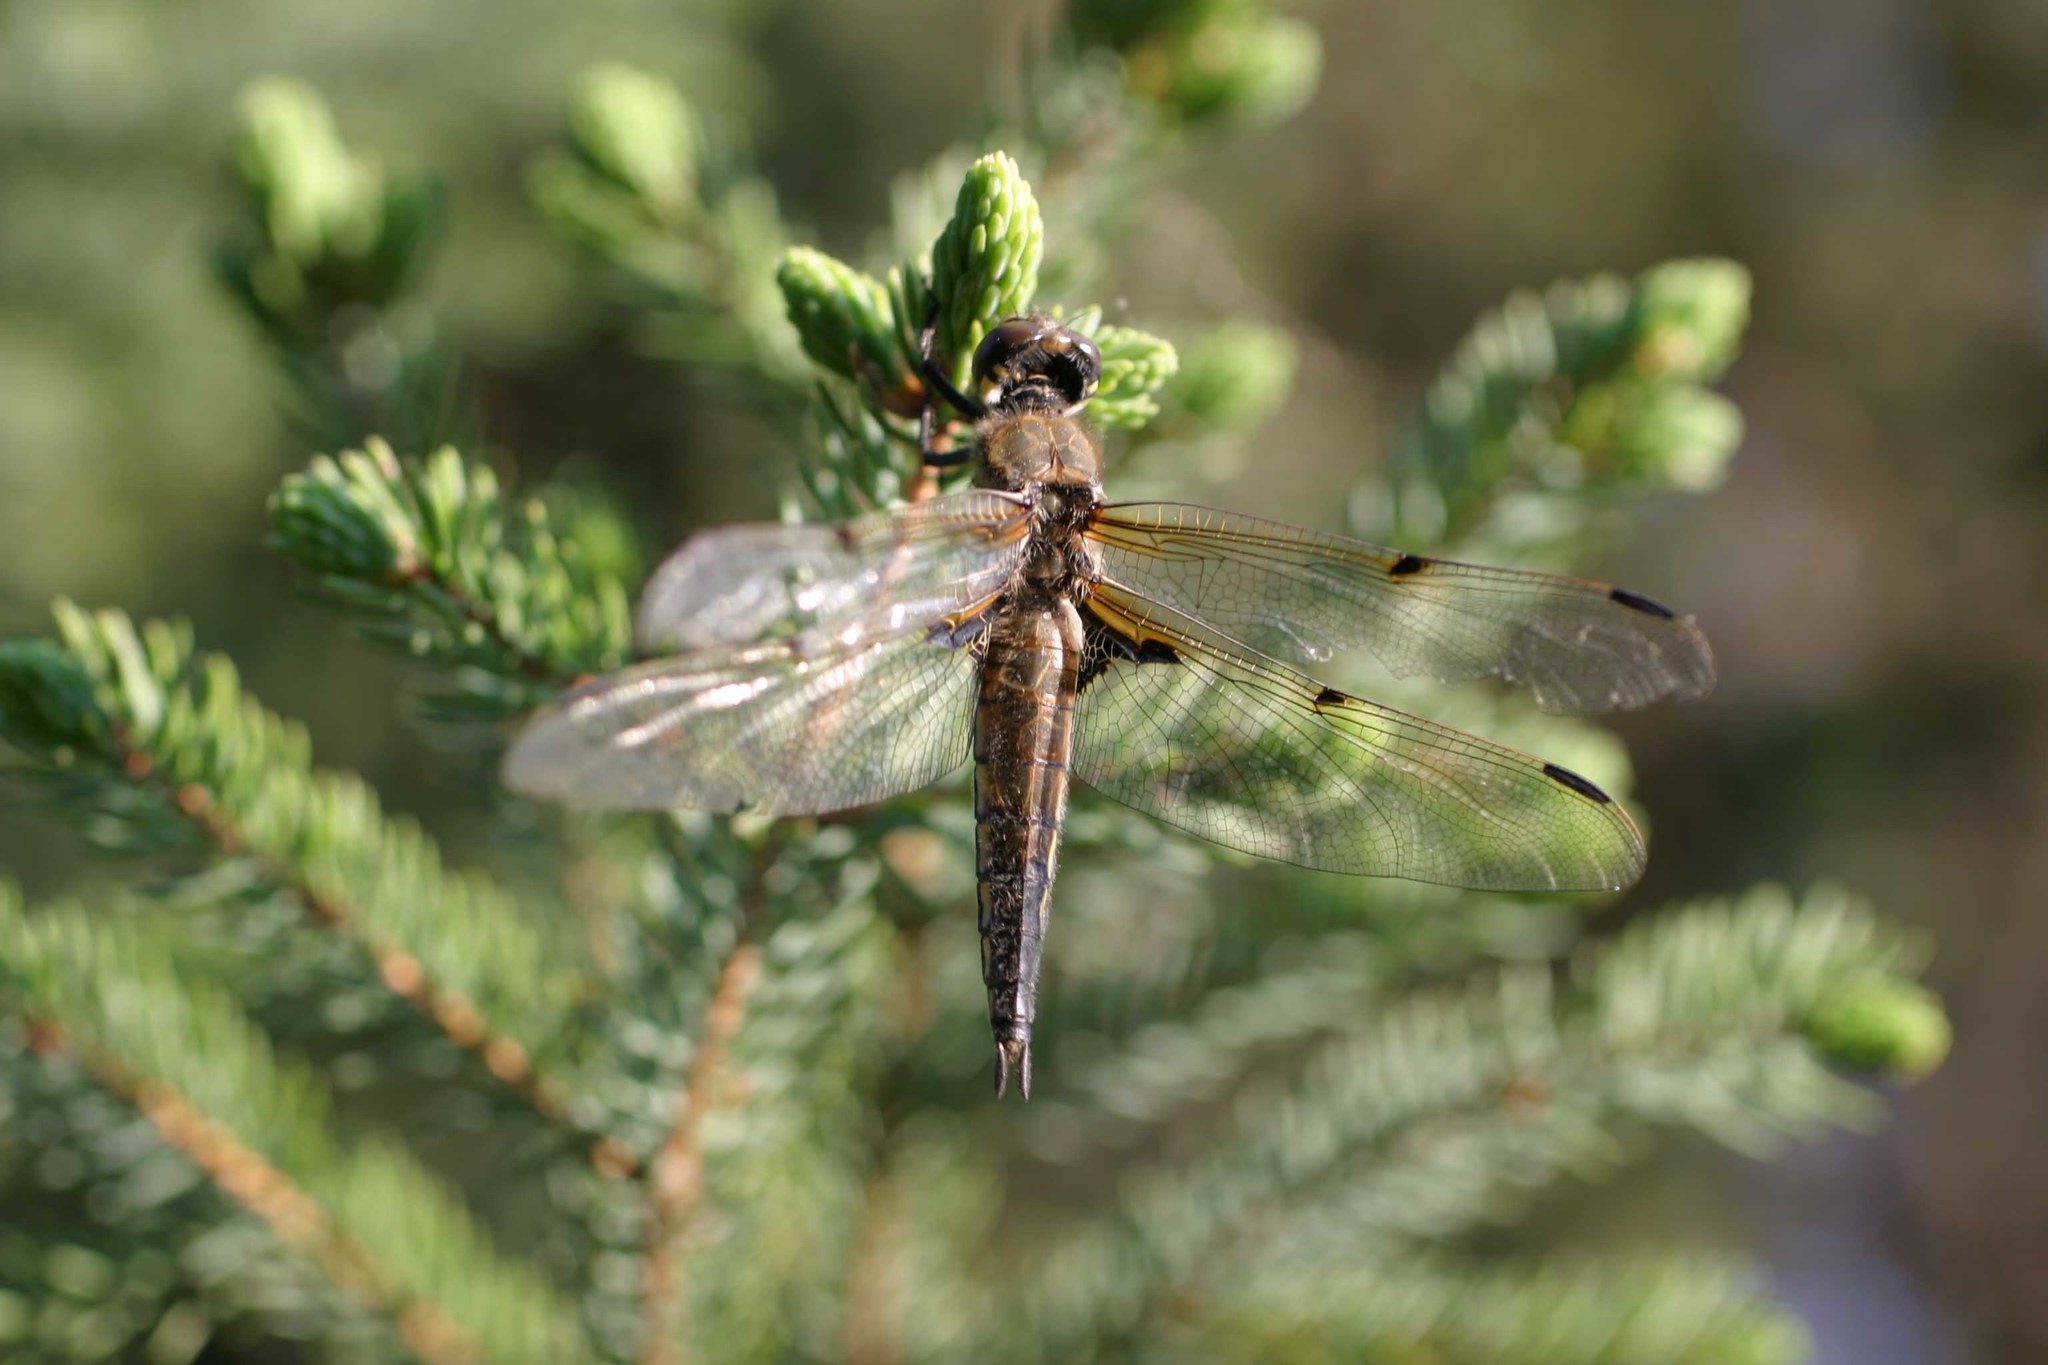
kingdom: Animalia
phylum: Arthropoda
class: Insecta
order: Odonata
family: Libellulidae
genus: Libellula
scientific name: Libellula quadrimaculata
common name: Four-spotted chaser
